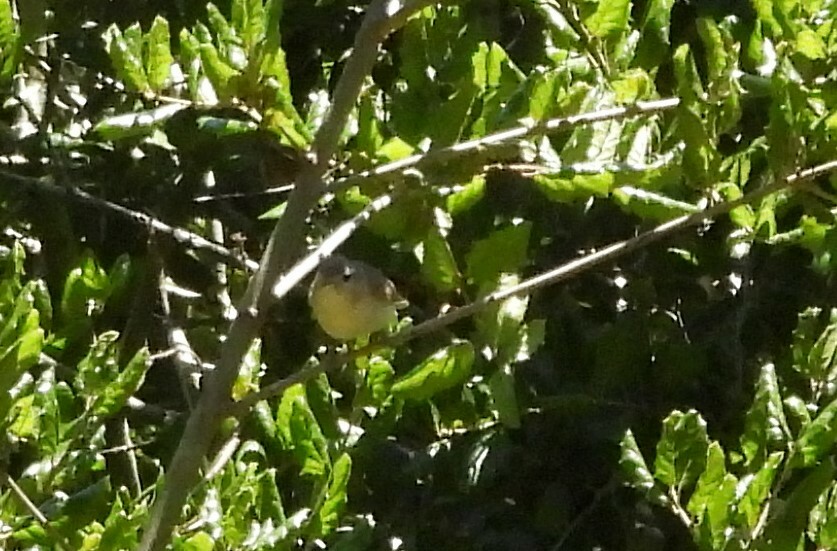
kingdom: Animalia
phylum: Chordata
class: Aves
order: Passeriformes
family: Vireonidae
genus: Vireo
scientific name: Vireo gilvus
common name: Warbling vireo
